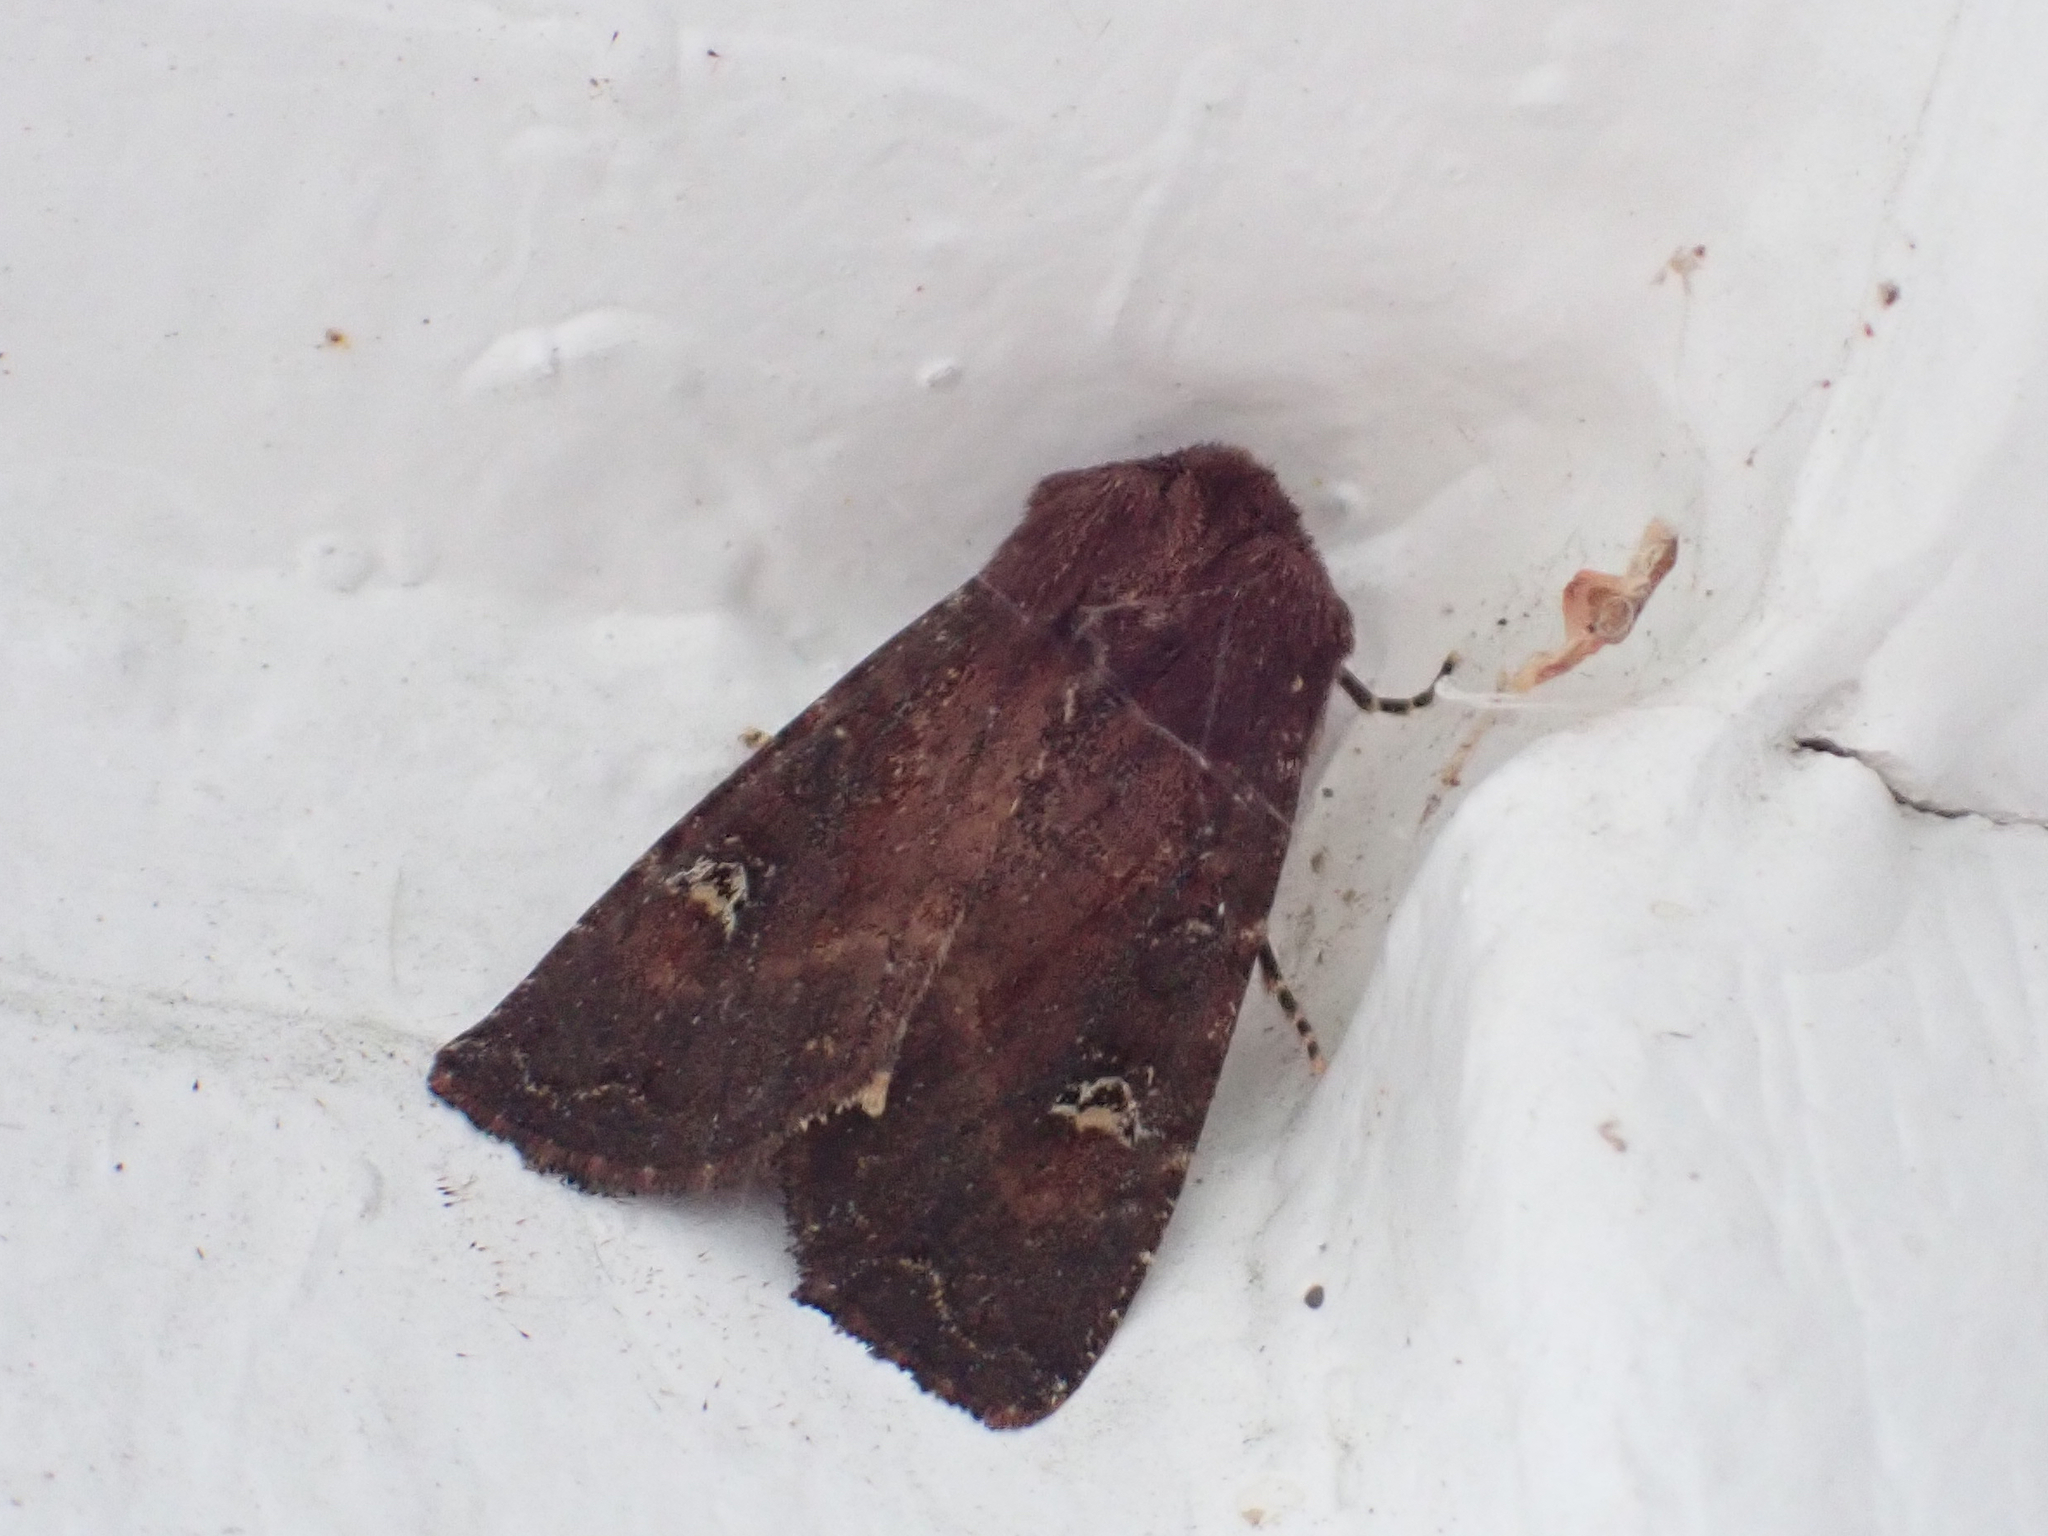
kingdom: Animalia
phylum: Arthropoda
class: Insecta
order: Lepidoptera
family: Noctuidae
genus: Apamea
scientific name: Apamea cogitata
